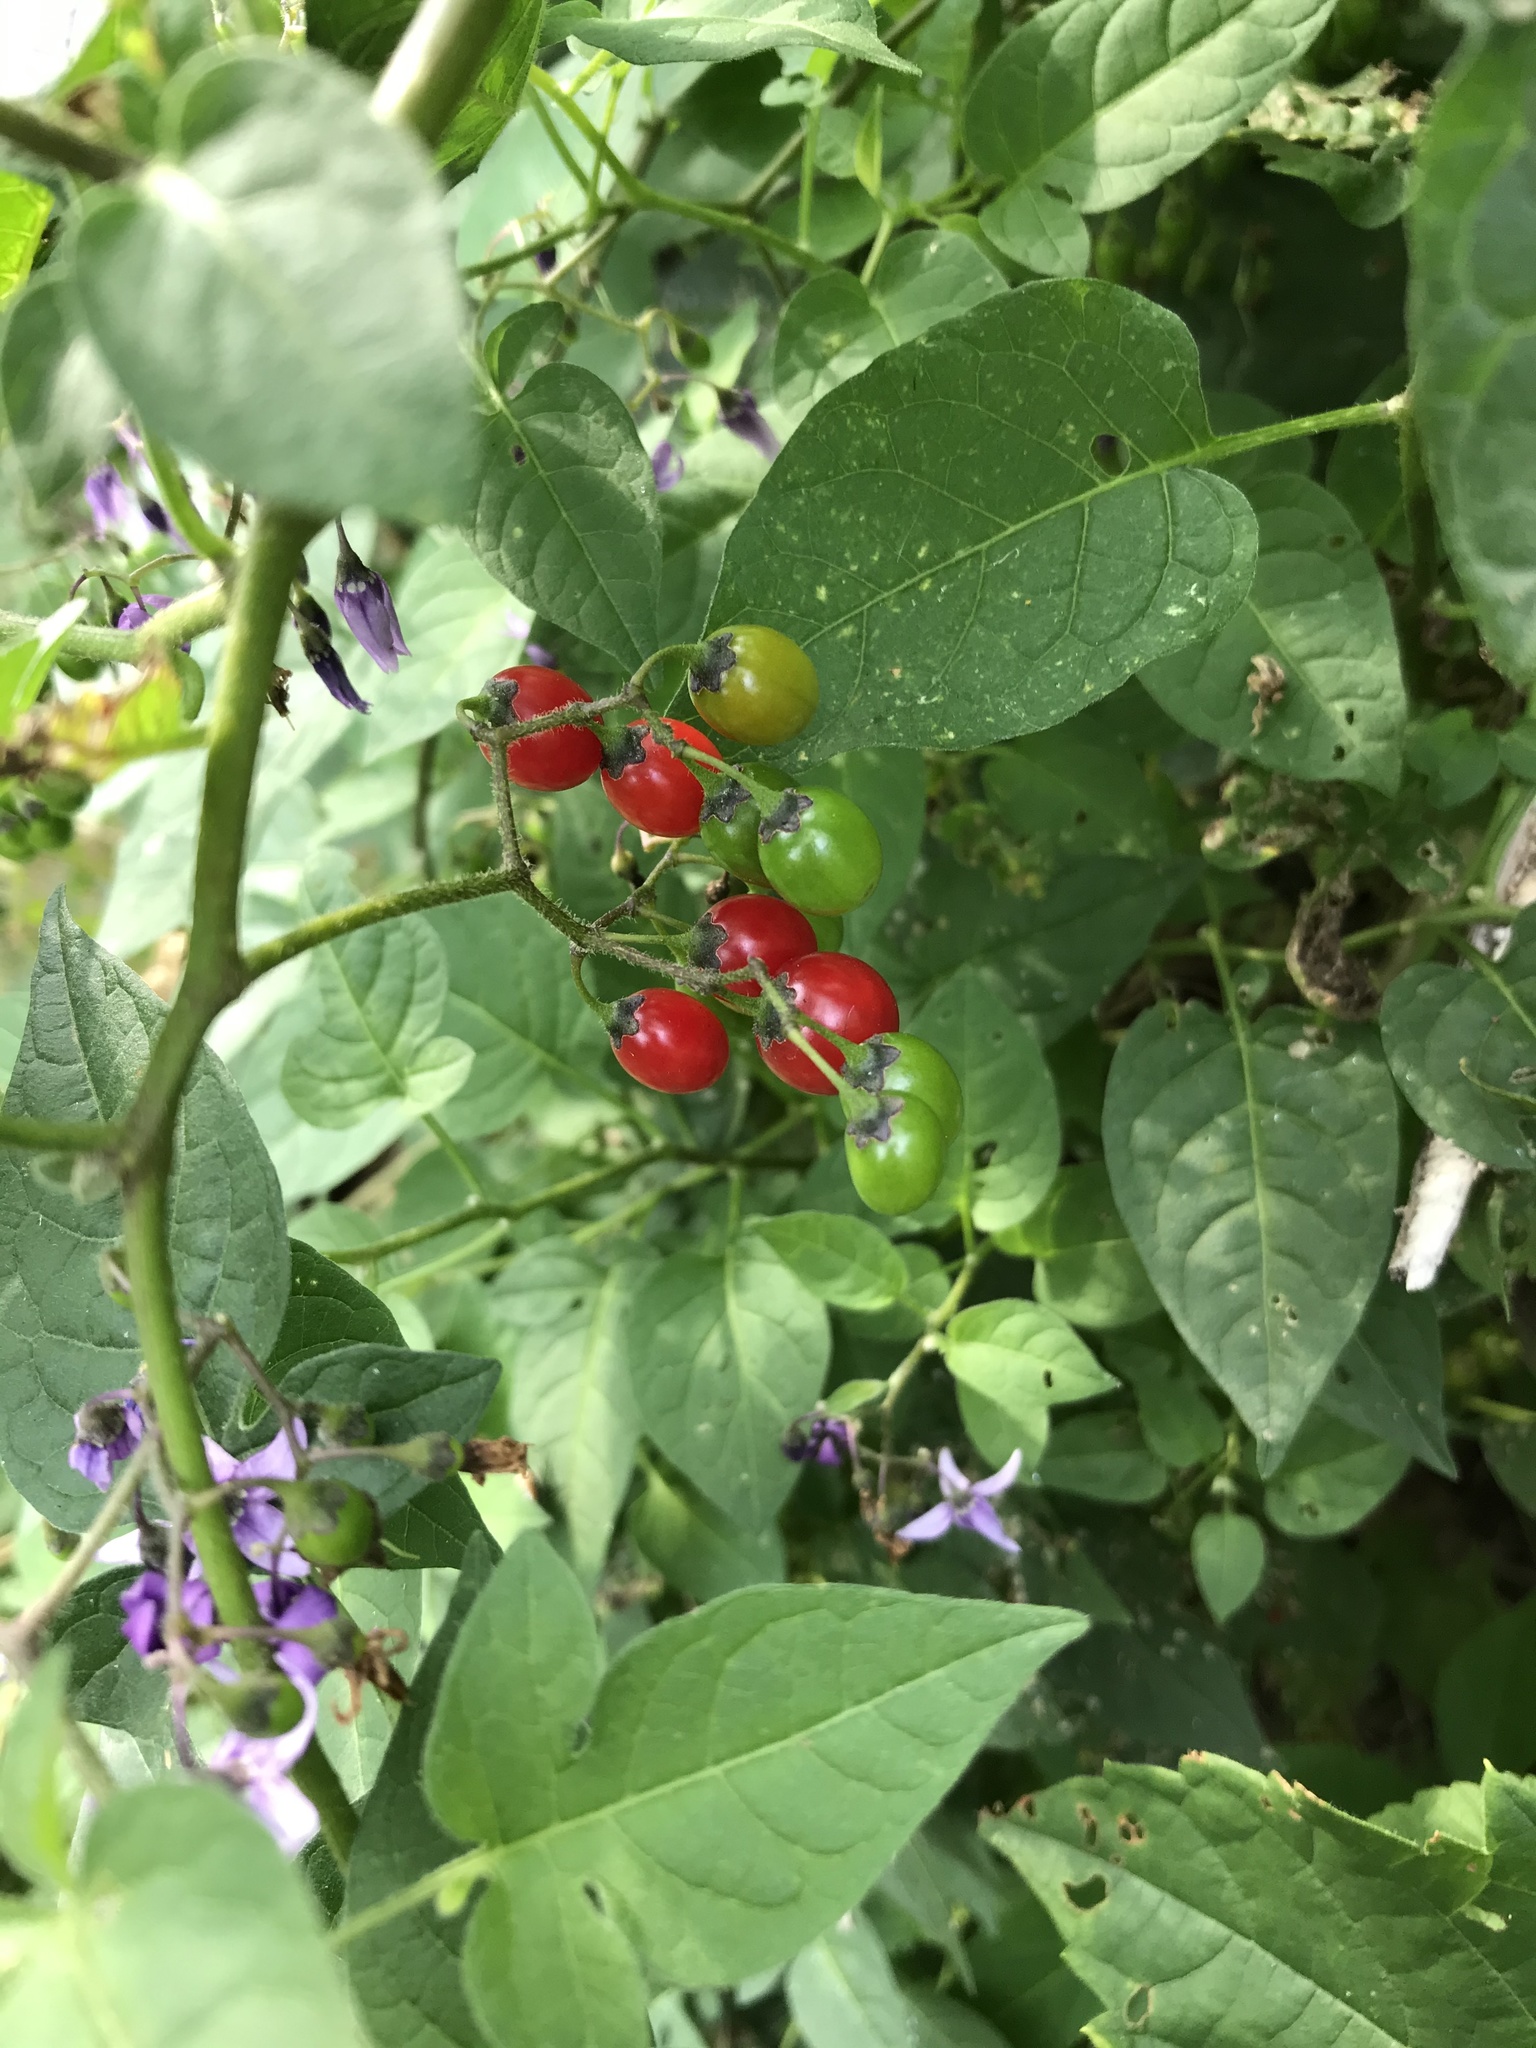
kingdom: Plantae
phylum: Tracheophyta
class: Magnoliopsida
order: Solanales
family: Solanaceae
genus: Solanum
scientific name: Solanum dulcamara
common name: Climbing nightshade
